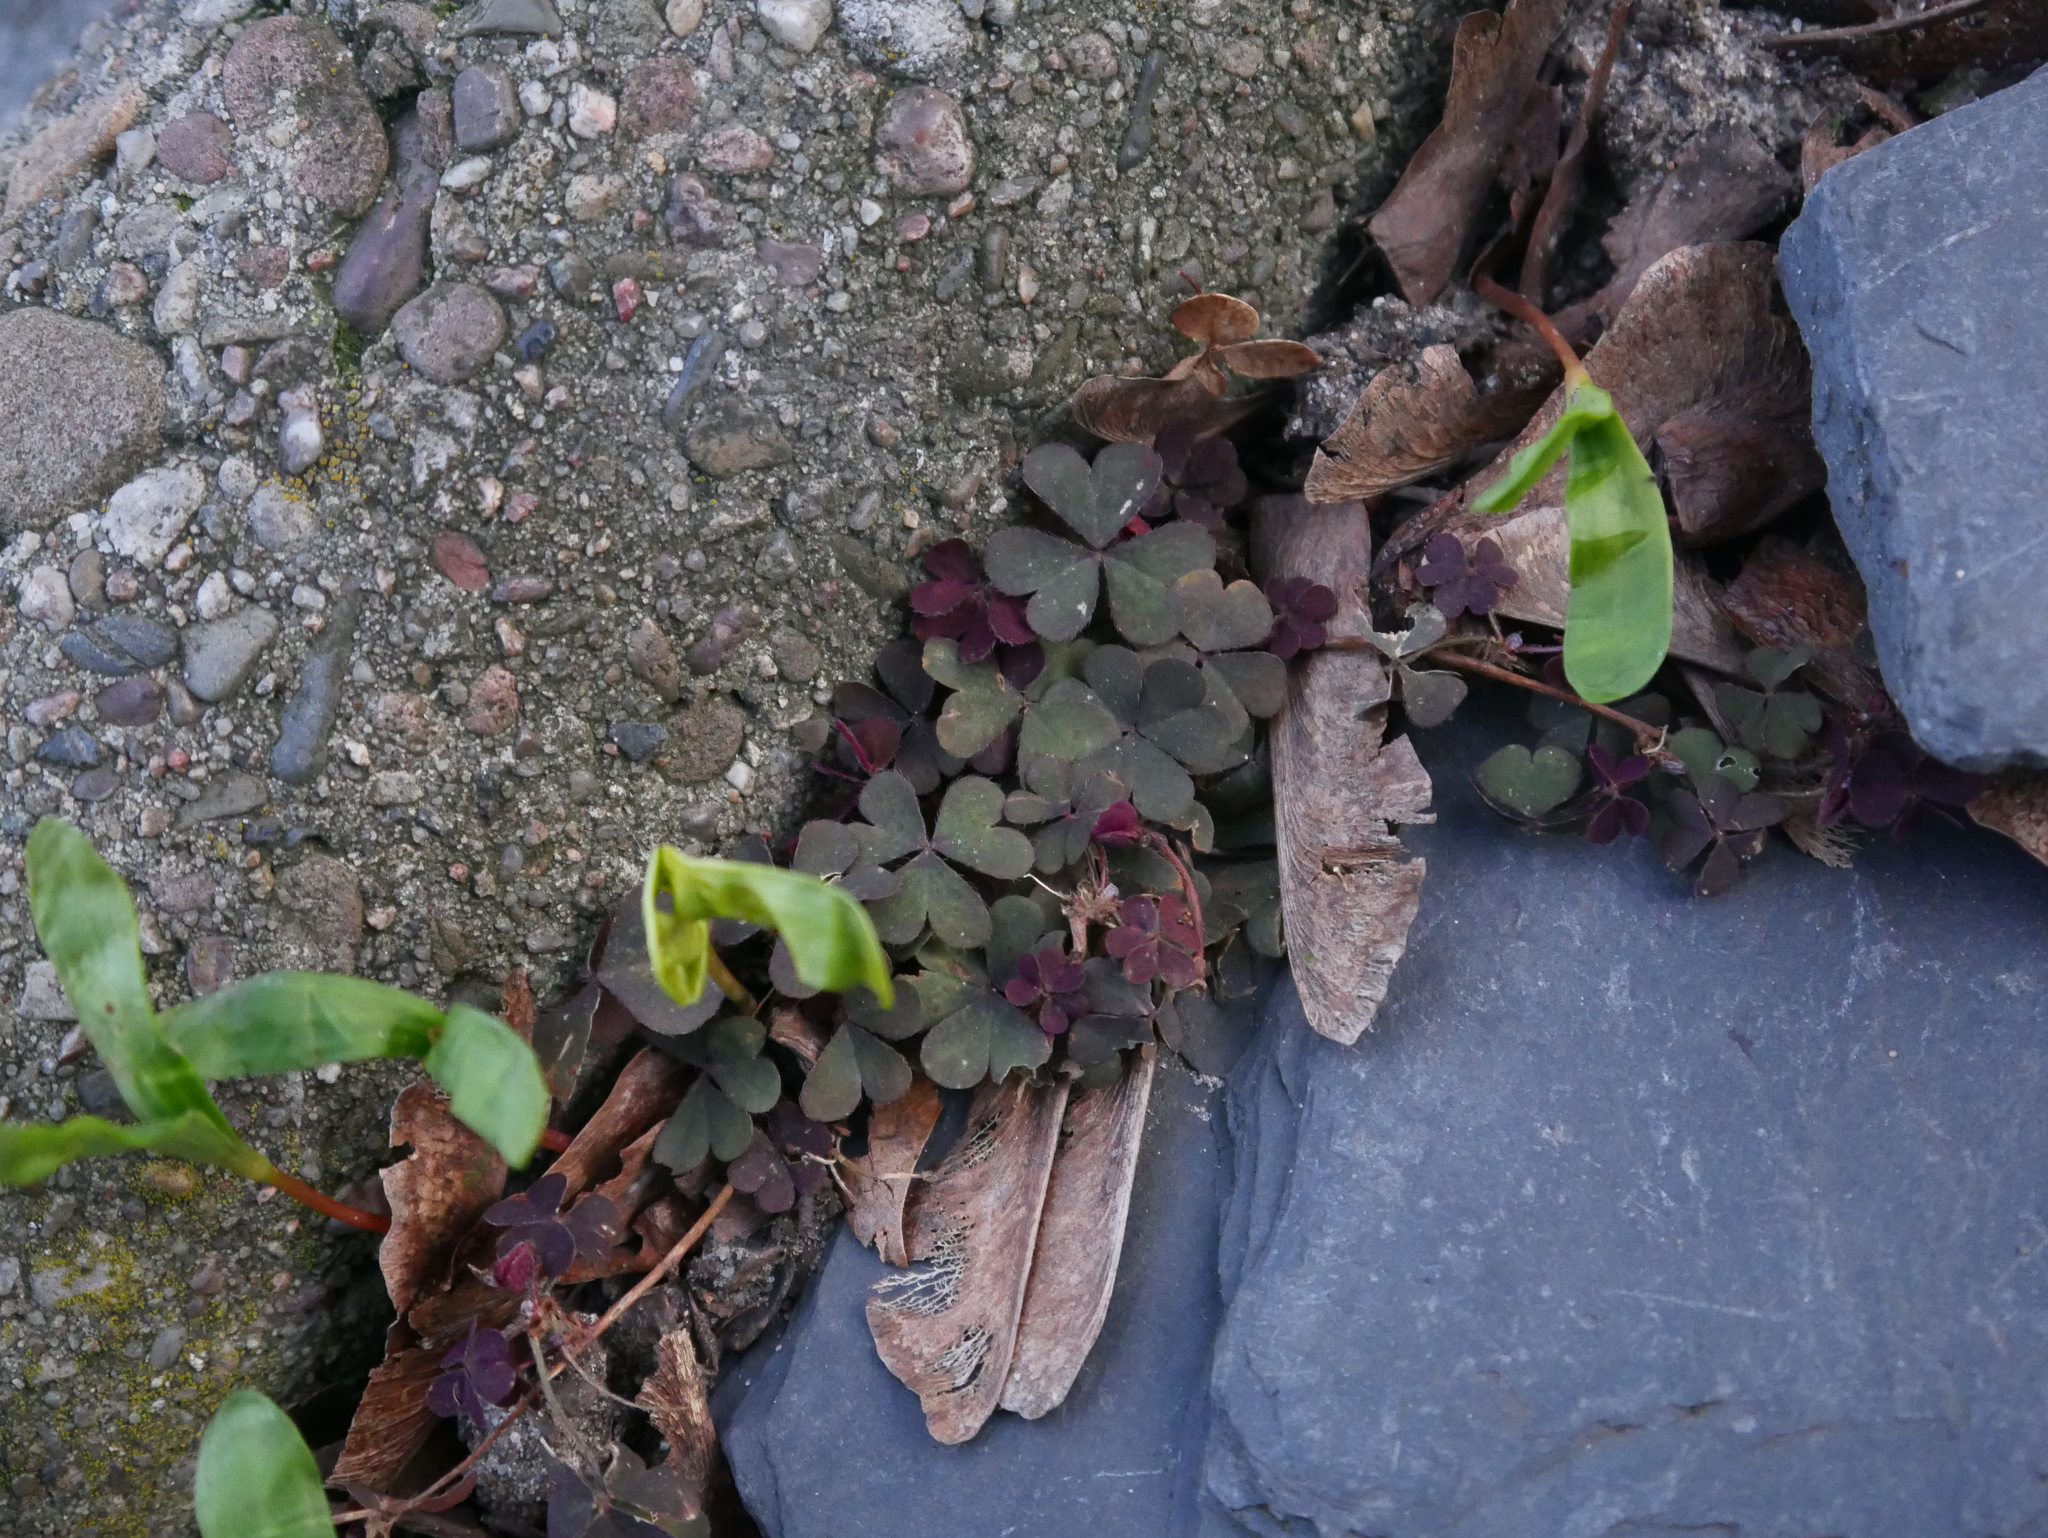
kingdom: Plantae
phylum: Tracheophyta
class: Magnoliopsida
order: Oxalidales
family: Oxalidaceae
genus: Oxalis
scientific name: Oxalis corniculata
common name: Procumbent yellow-sorrel
